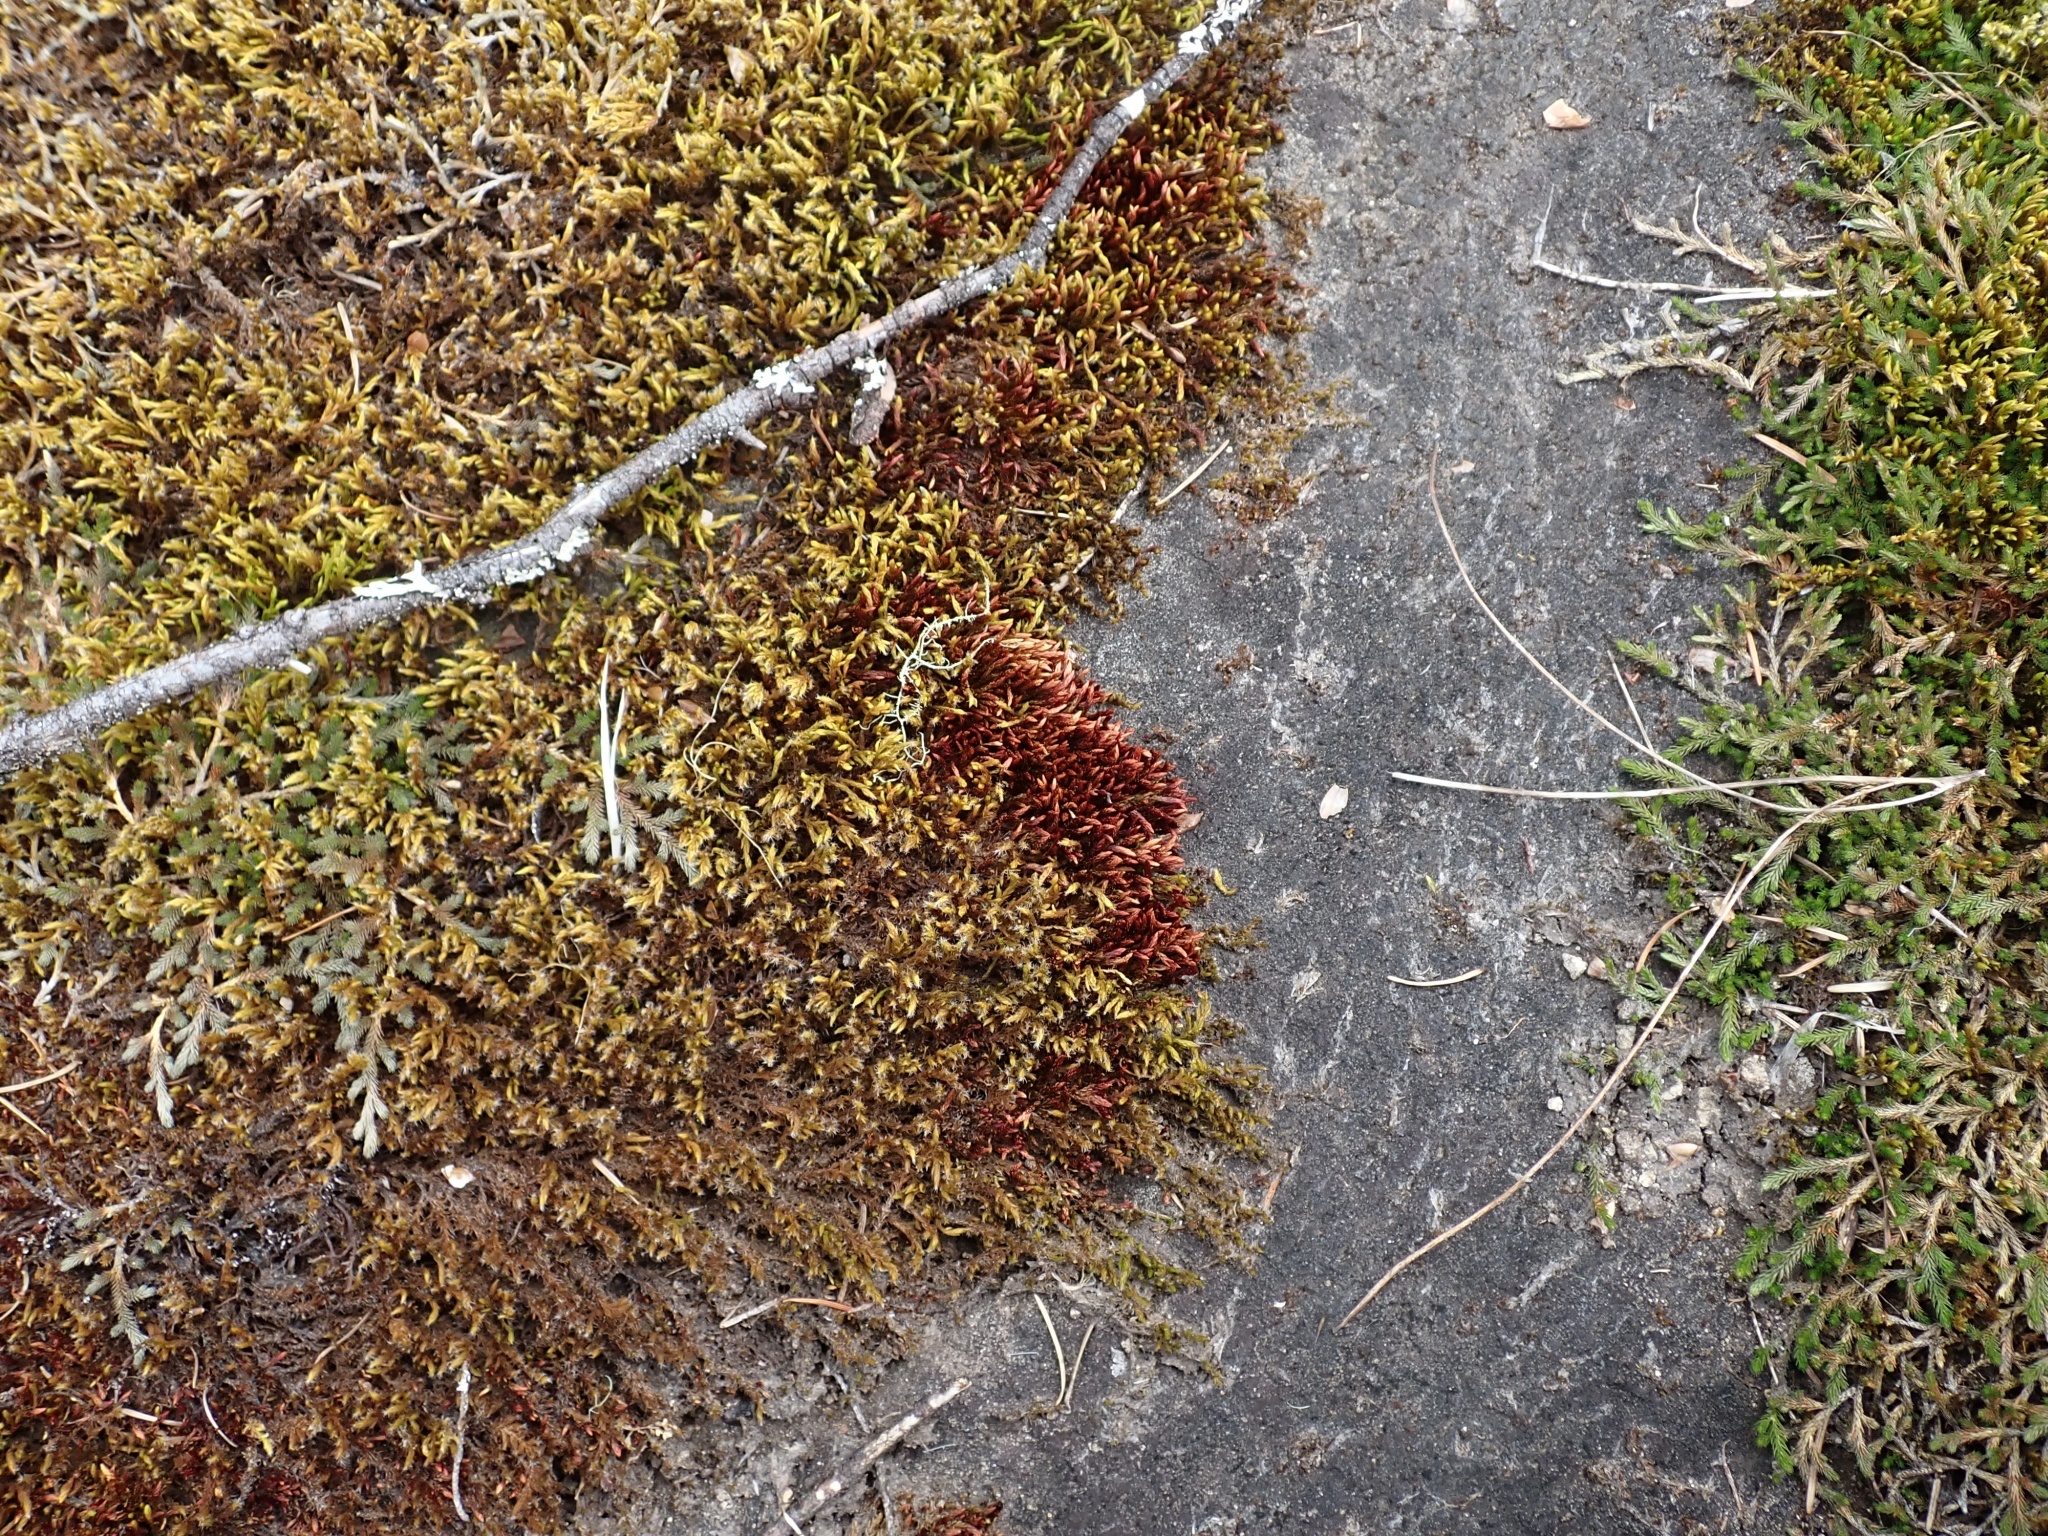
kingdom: Plantae
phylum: Bryophyta
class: Bryopsida
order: Bryales
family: Bryaceae
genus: Imbribryum
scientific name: Imbribryum miniatum
